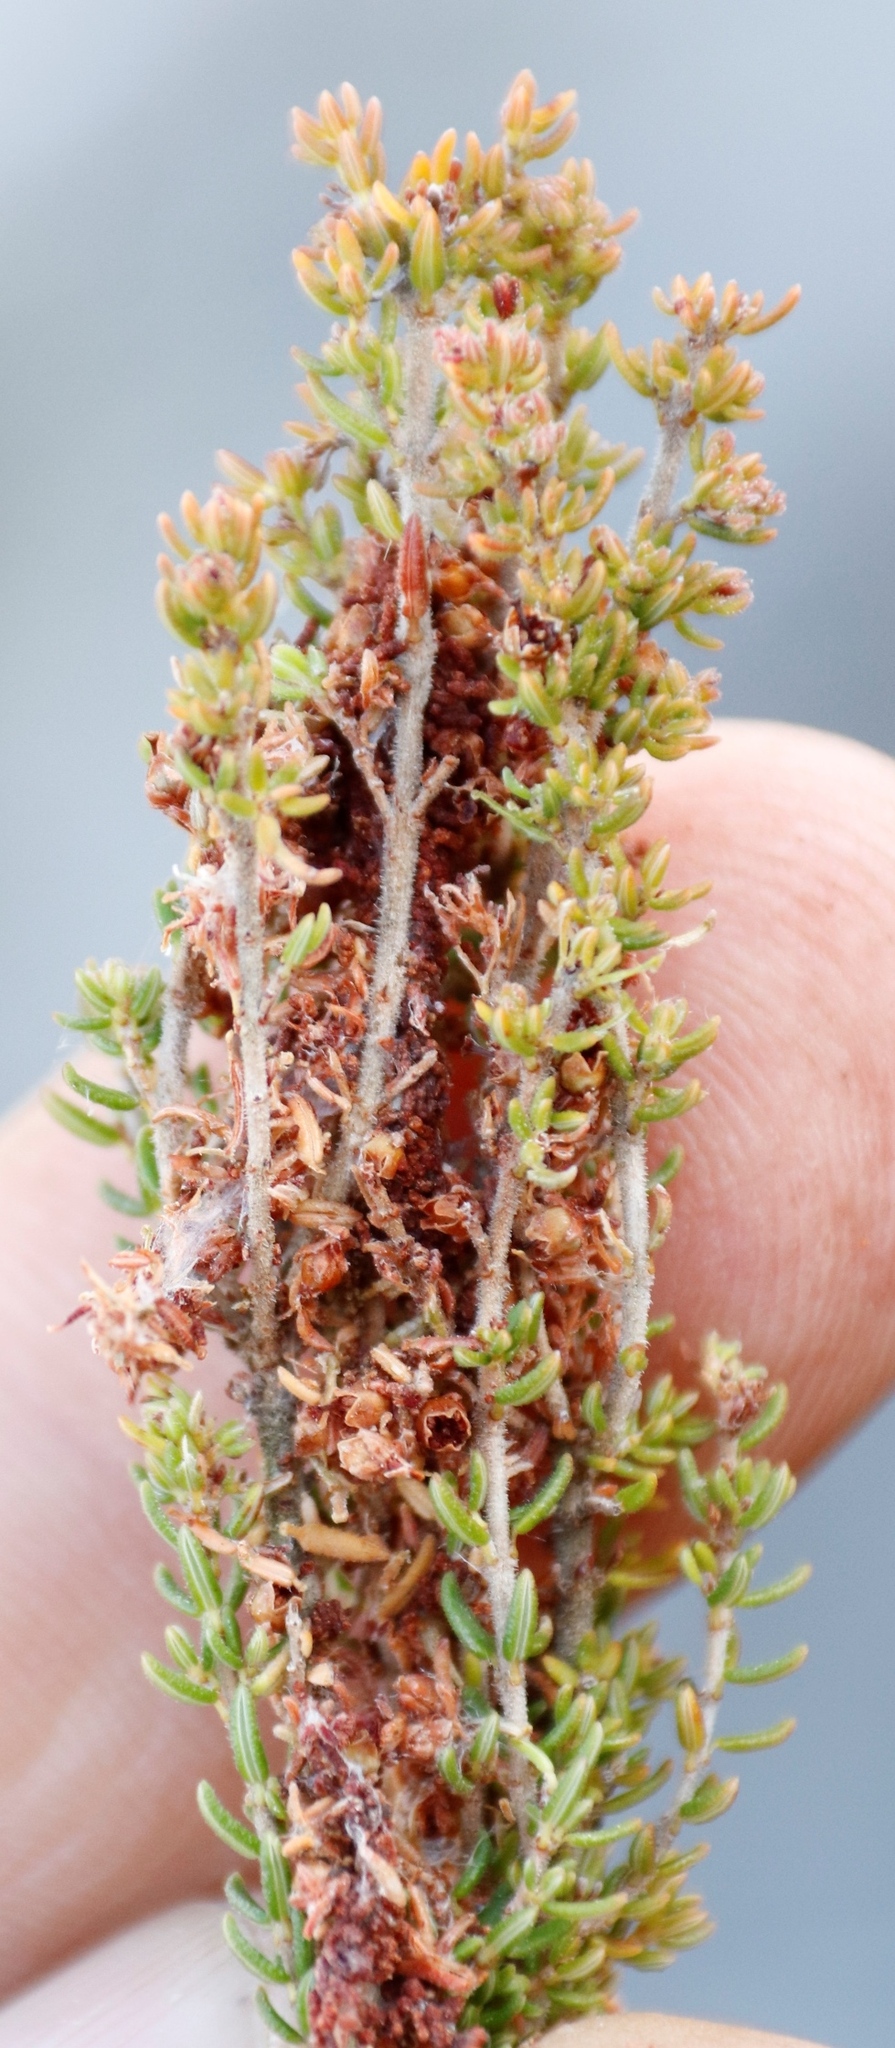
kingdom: Animalia
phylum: Arthropoda
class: Insecta
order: Lepidoptera
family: Pyralidae
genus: Triphassa
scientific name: Triphassa stalachtis
